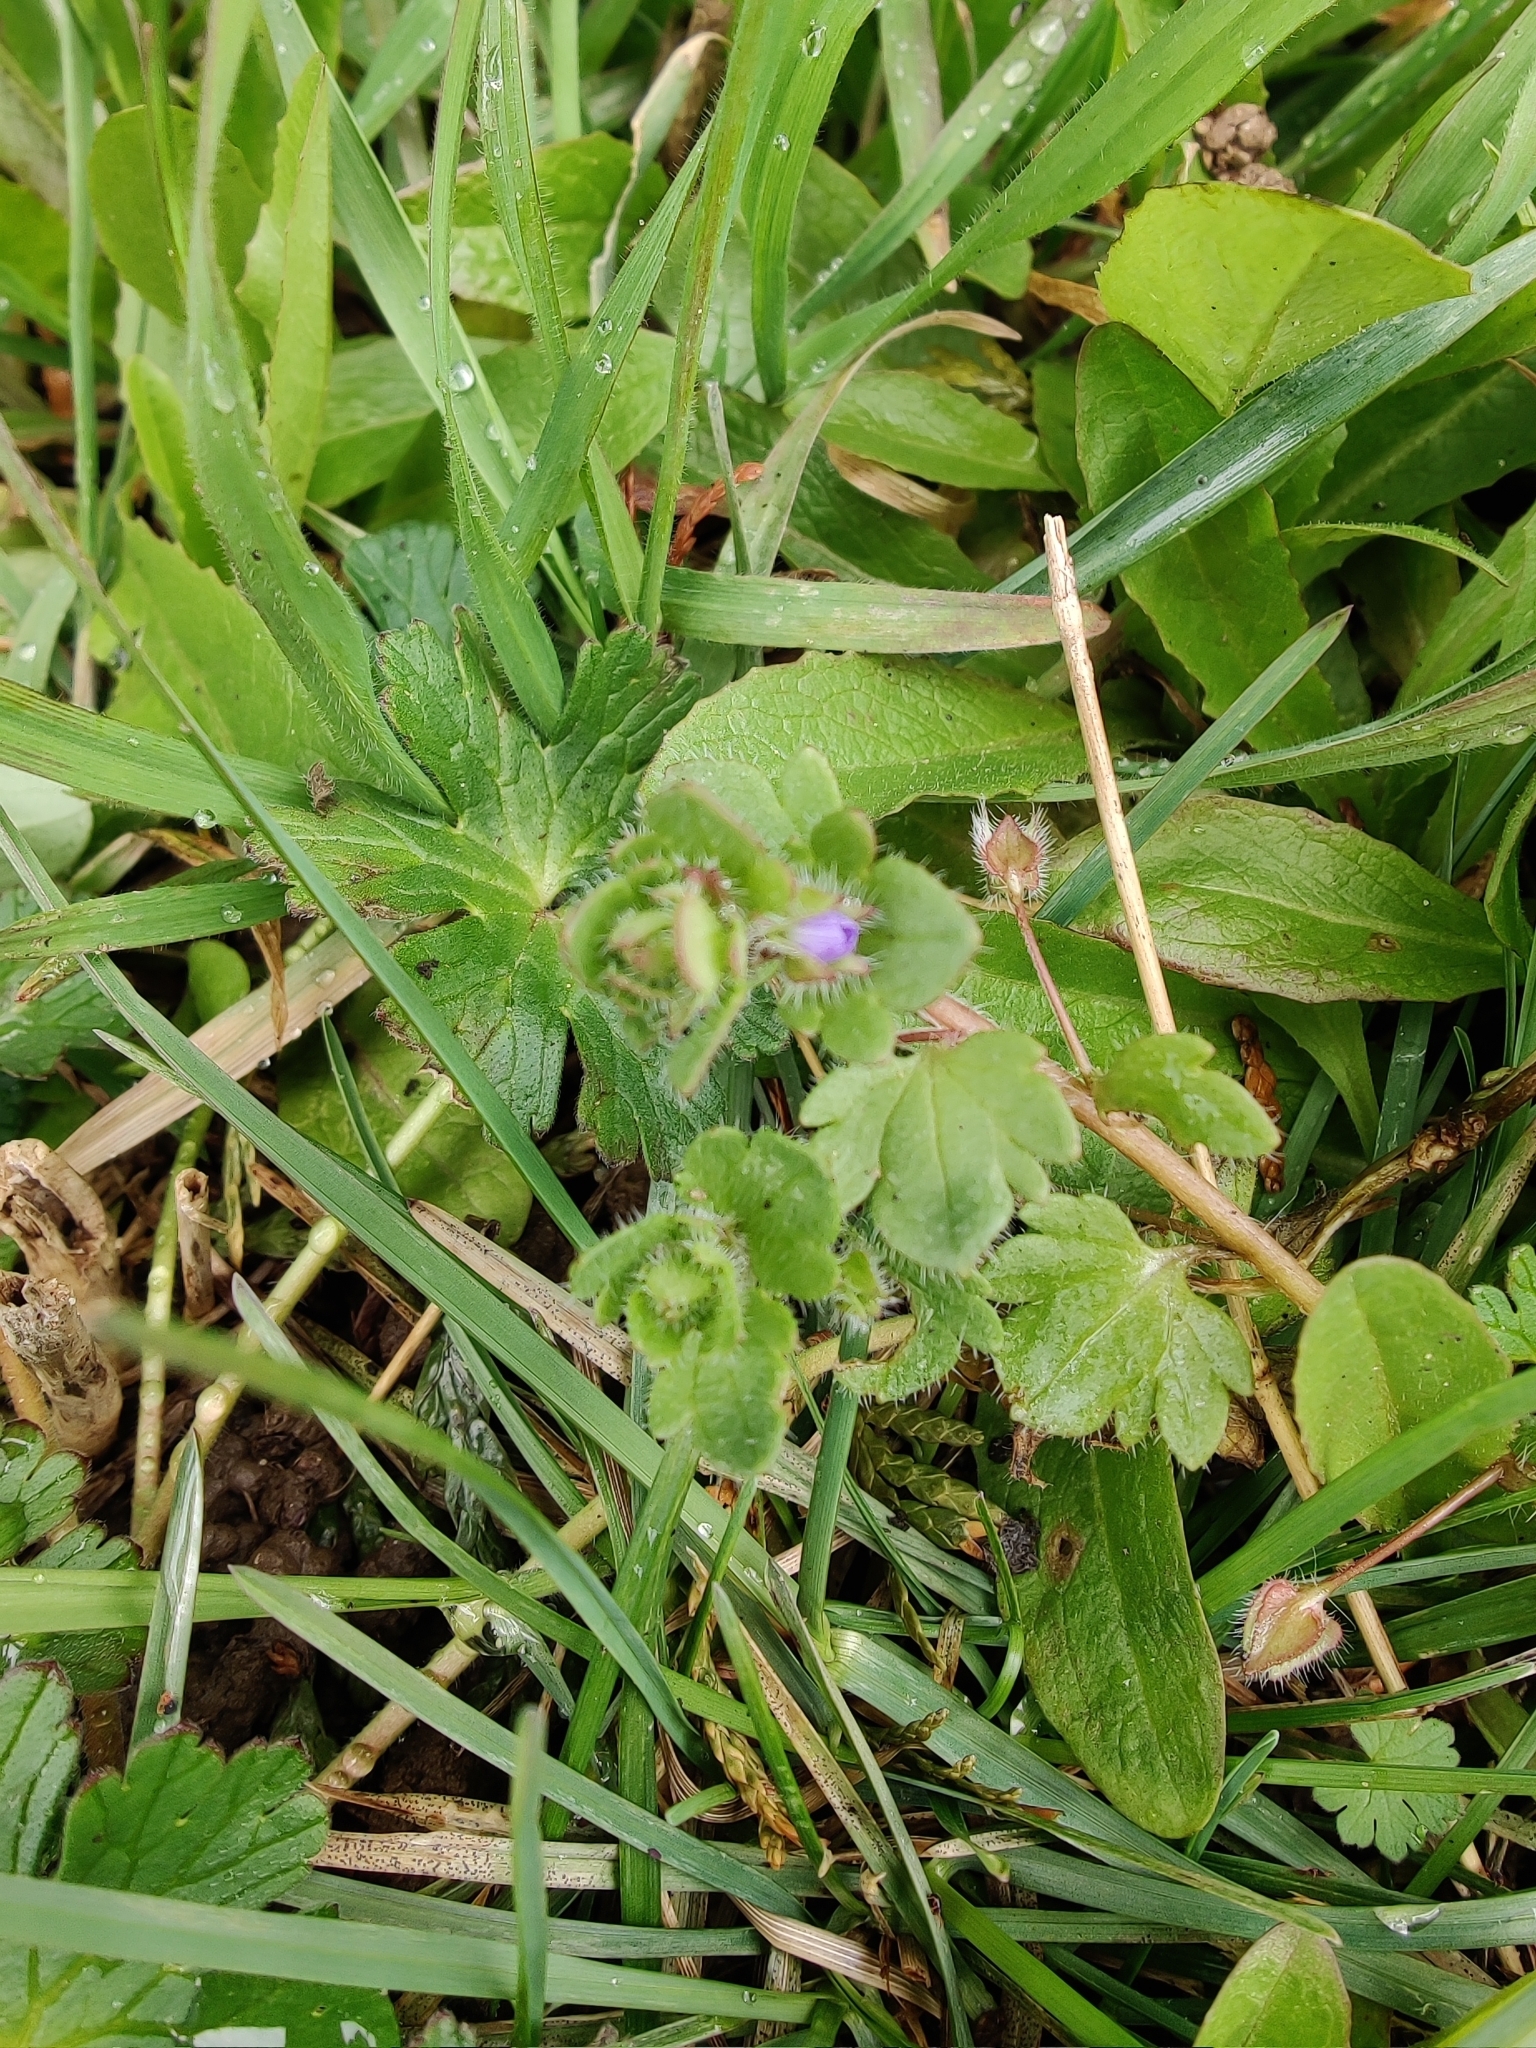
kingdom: Plantae
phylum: Tracheophyta
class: Magnoliopsida
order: Lamiales
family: Plantaginaceae
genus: Veronica
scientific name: Veronica hederifolia
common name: Ivy-leaved speedwell
